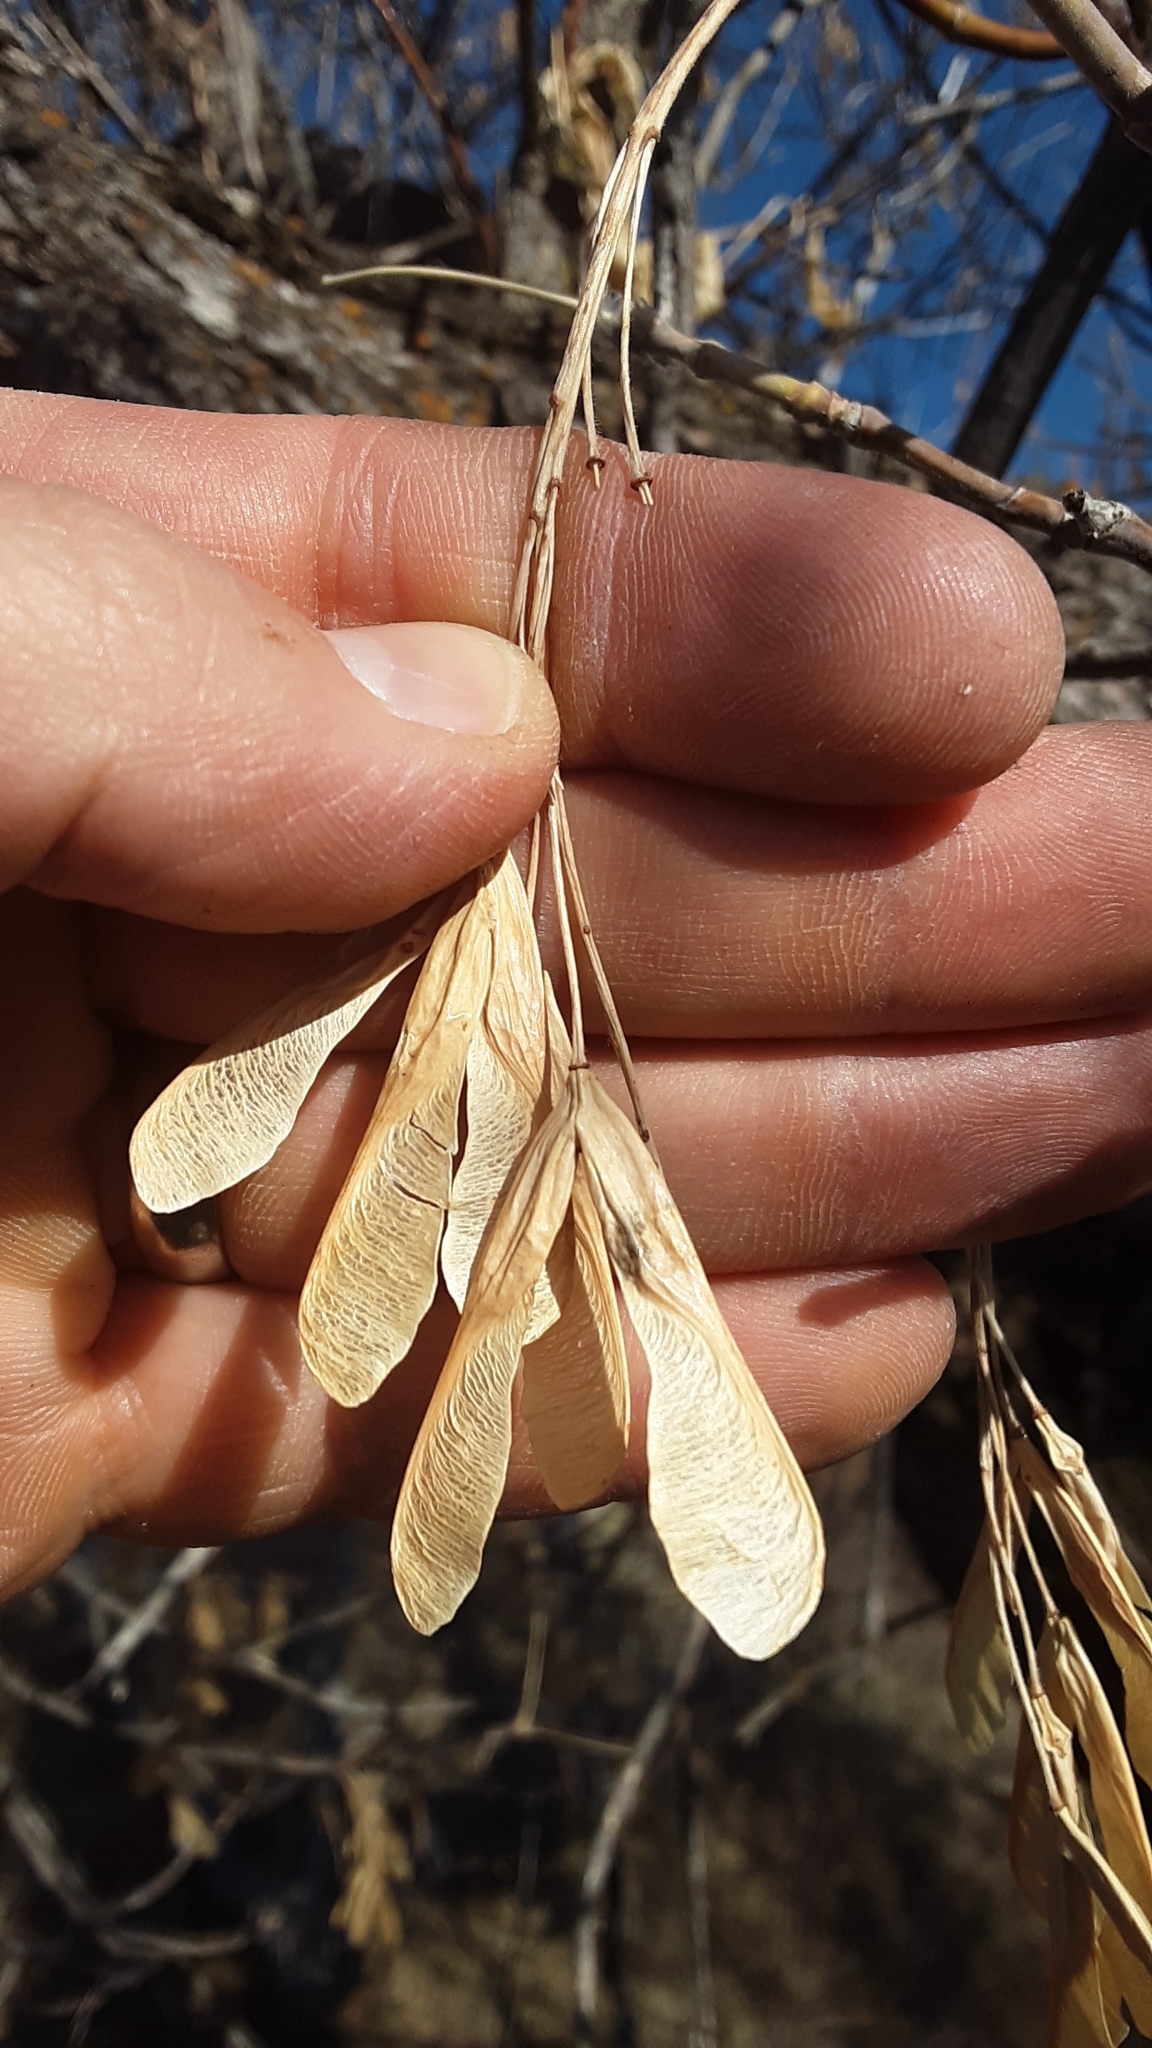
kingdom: Plantae
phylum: Tracheophyta
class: Magnoliopsida
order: Sapindales
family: Sapindaceae
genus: Acer
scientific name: Acer negundo
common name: Ashleaf maple
